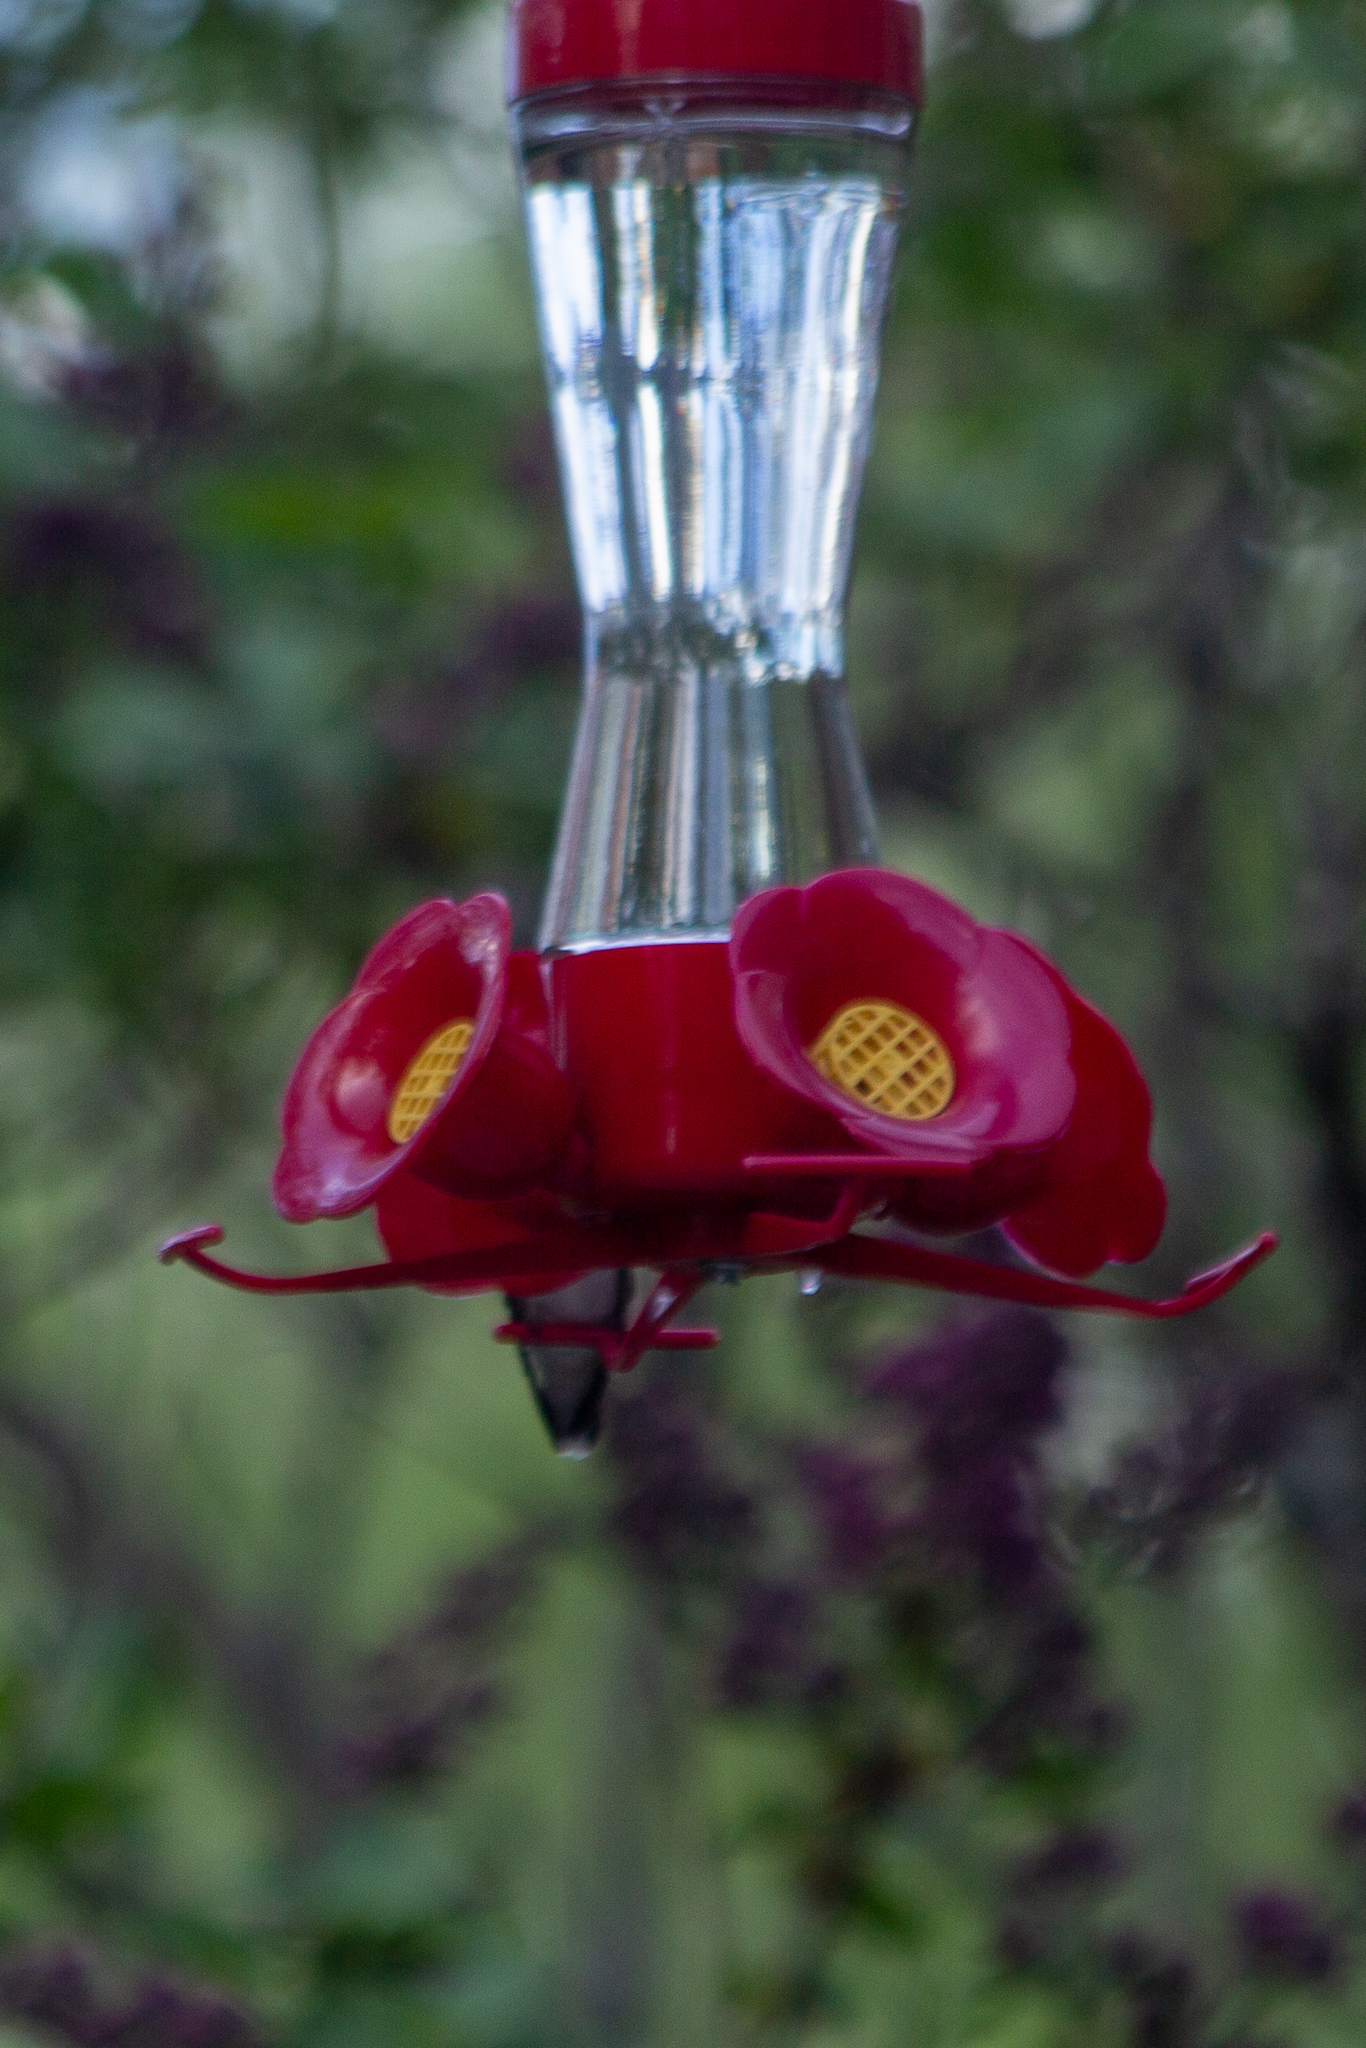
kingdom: Animalia
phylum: Chordata
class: Aves
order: Apodiformes
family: Trochilidae
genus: Archilochus
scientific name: Archilochus colubris
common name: Ruby-throated hummingbird
